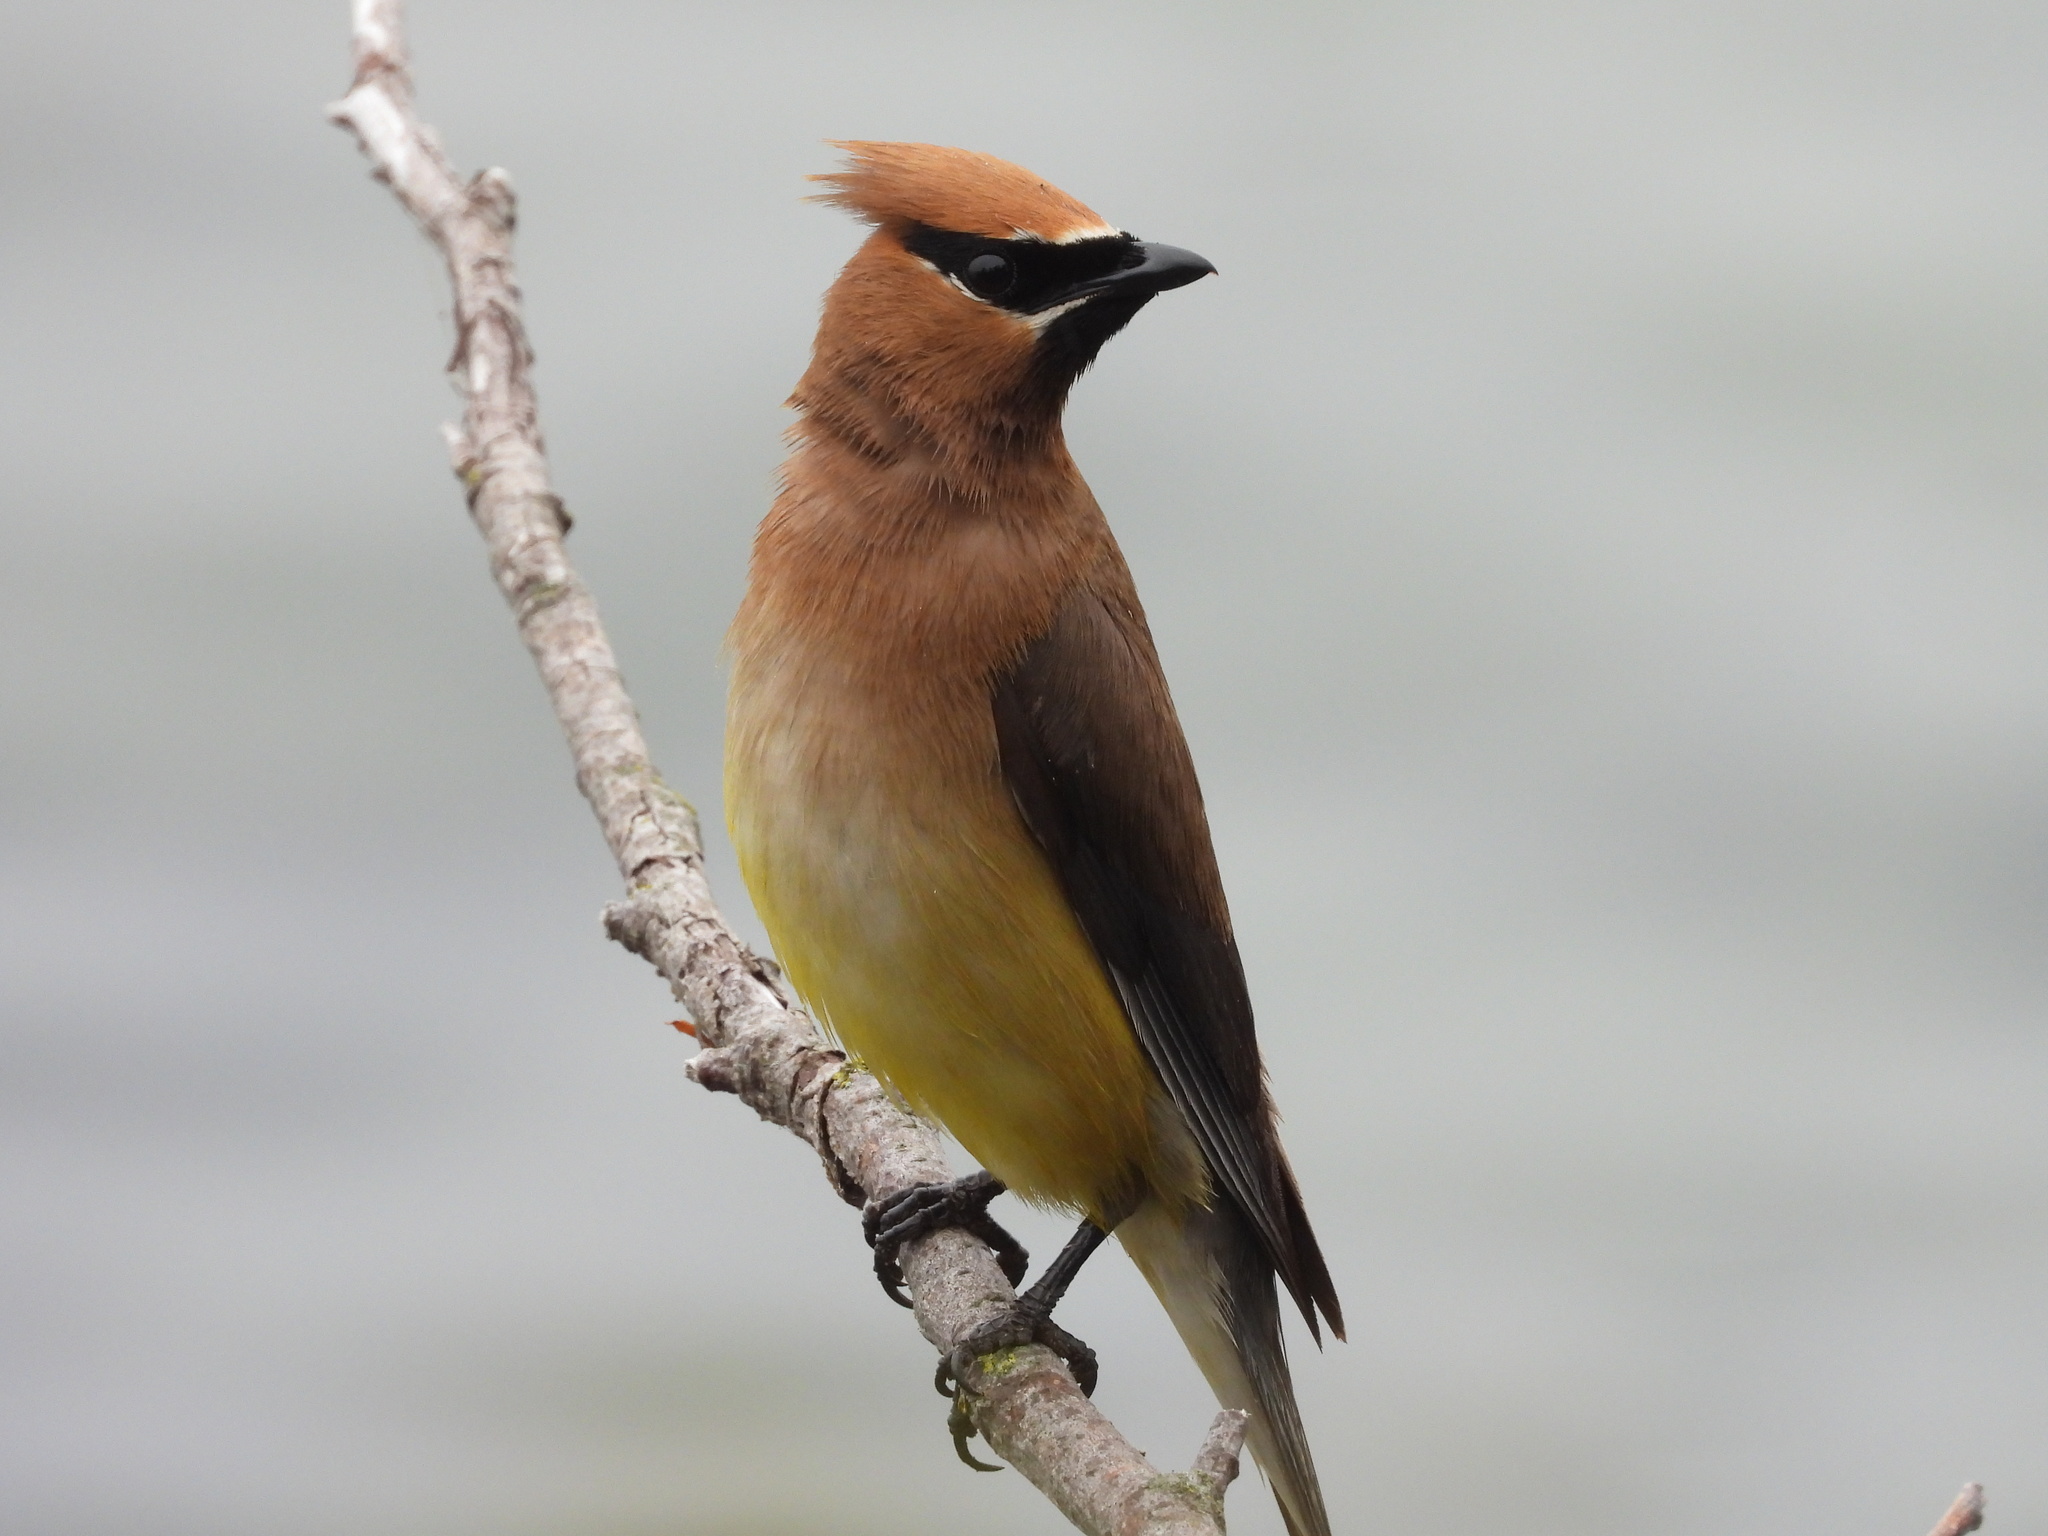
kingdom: Animalia
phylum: Chordata
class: Aves
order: Passeriformes
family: Bombycillidae
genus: Bombycilla
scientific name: Bombycilla cedrorum
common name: Cedar waxwing
